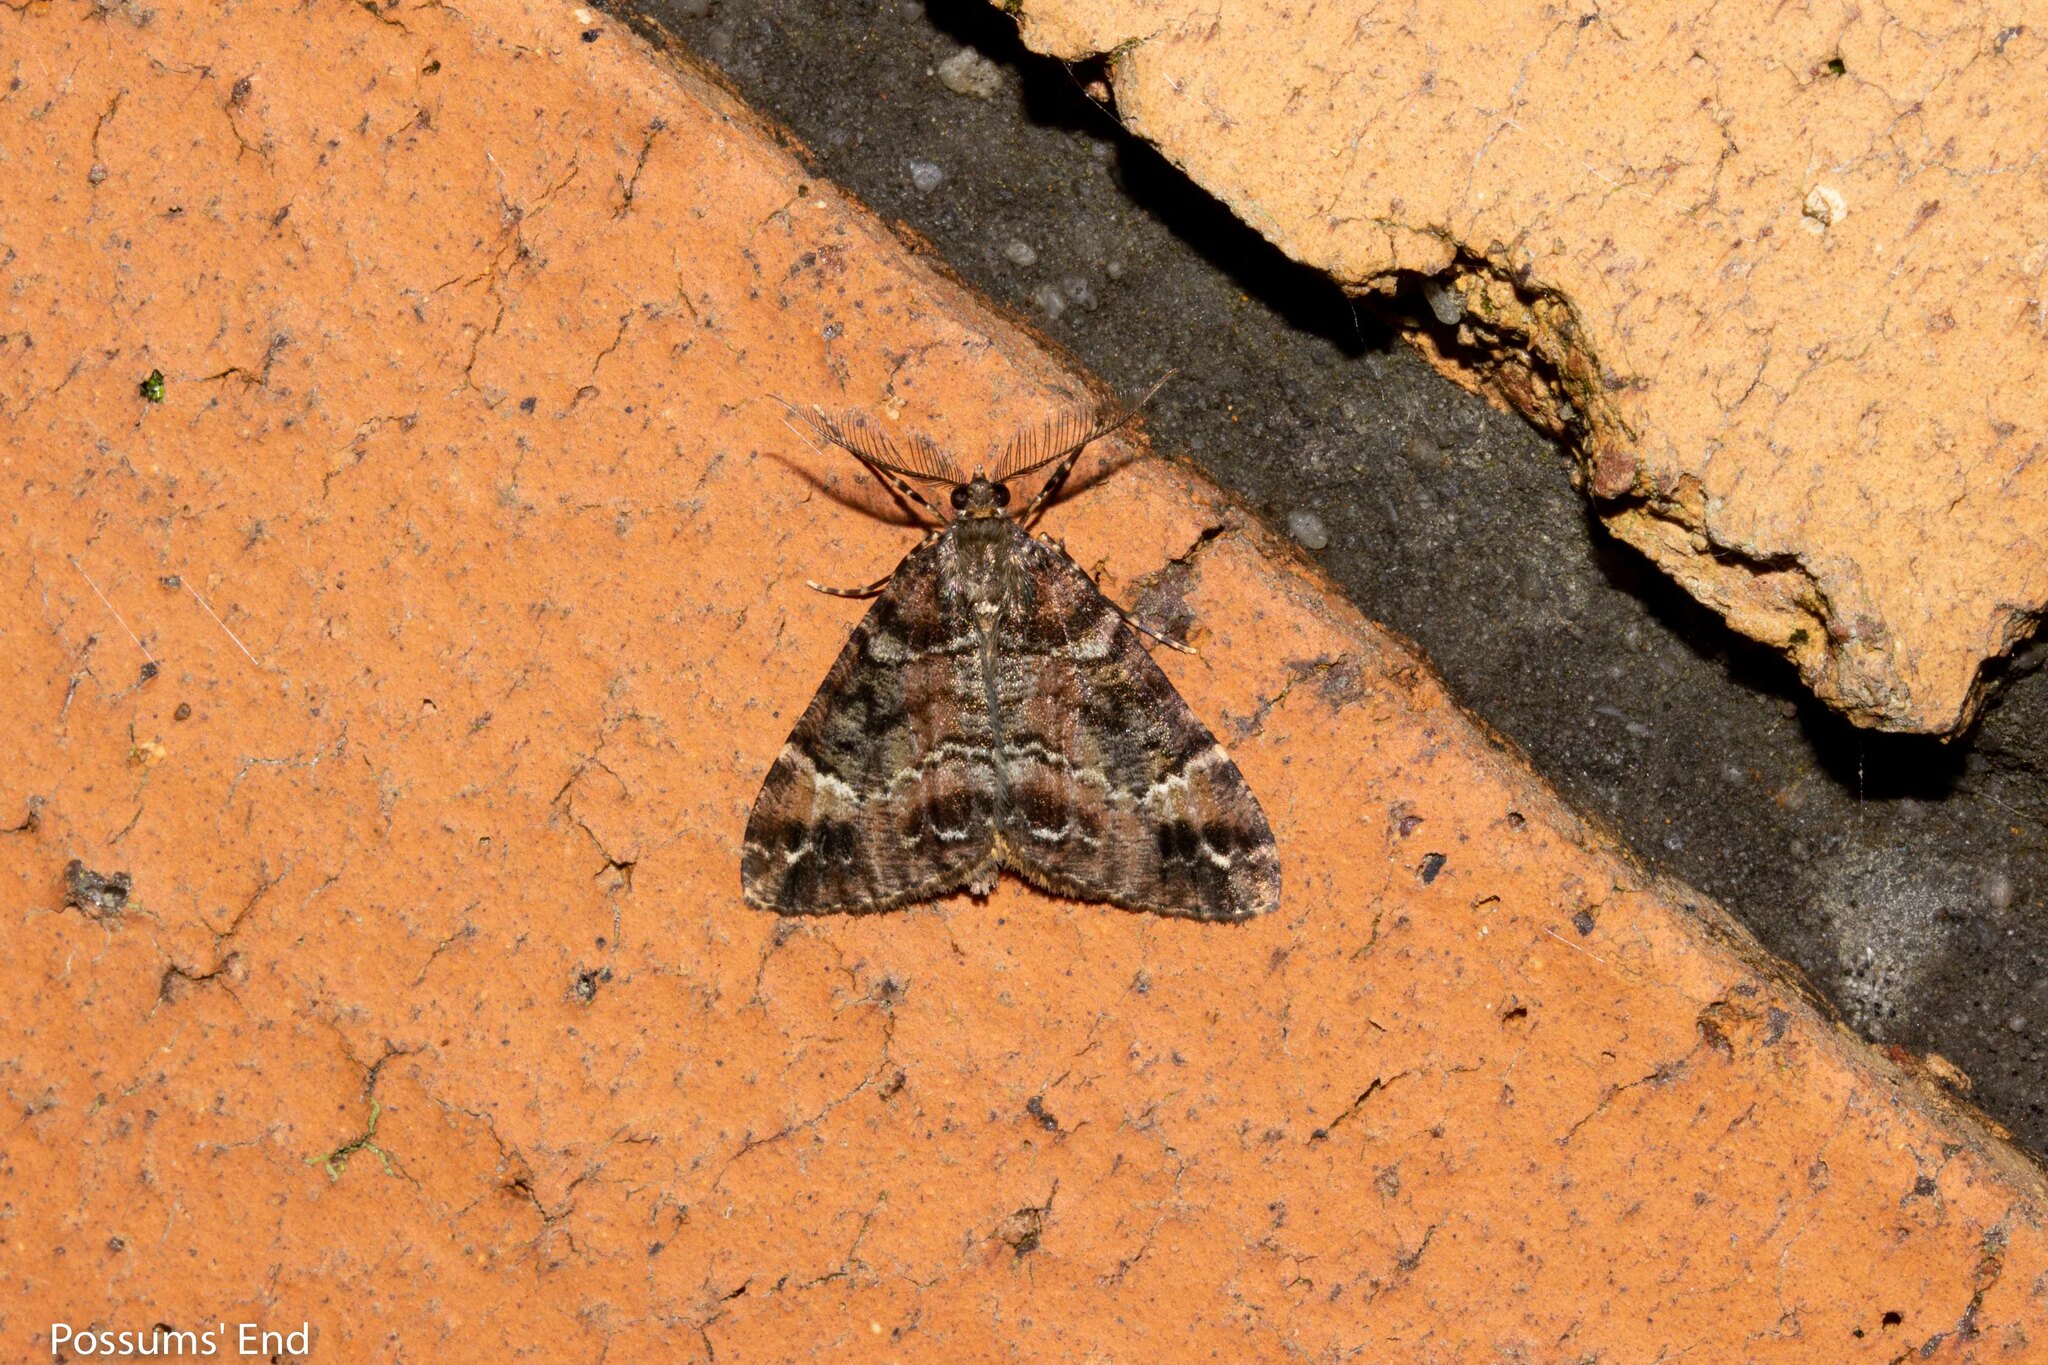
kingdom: Animalia
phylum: Arthropoda
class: Insecta
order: Lepidoptera
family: Geometridae
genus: Pseudocoremia
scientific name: Pseudocoremia productata
